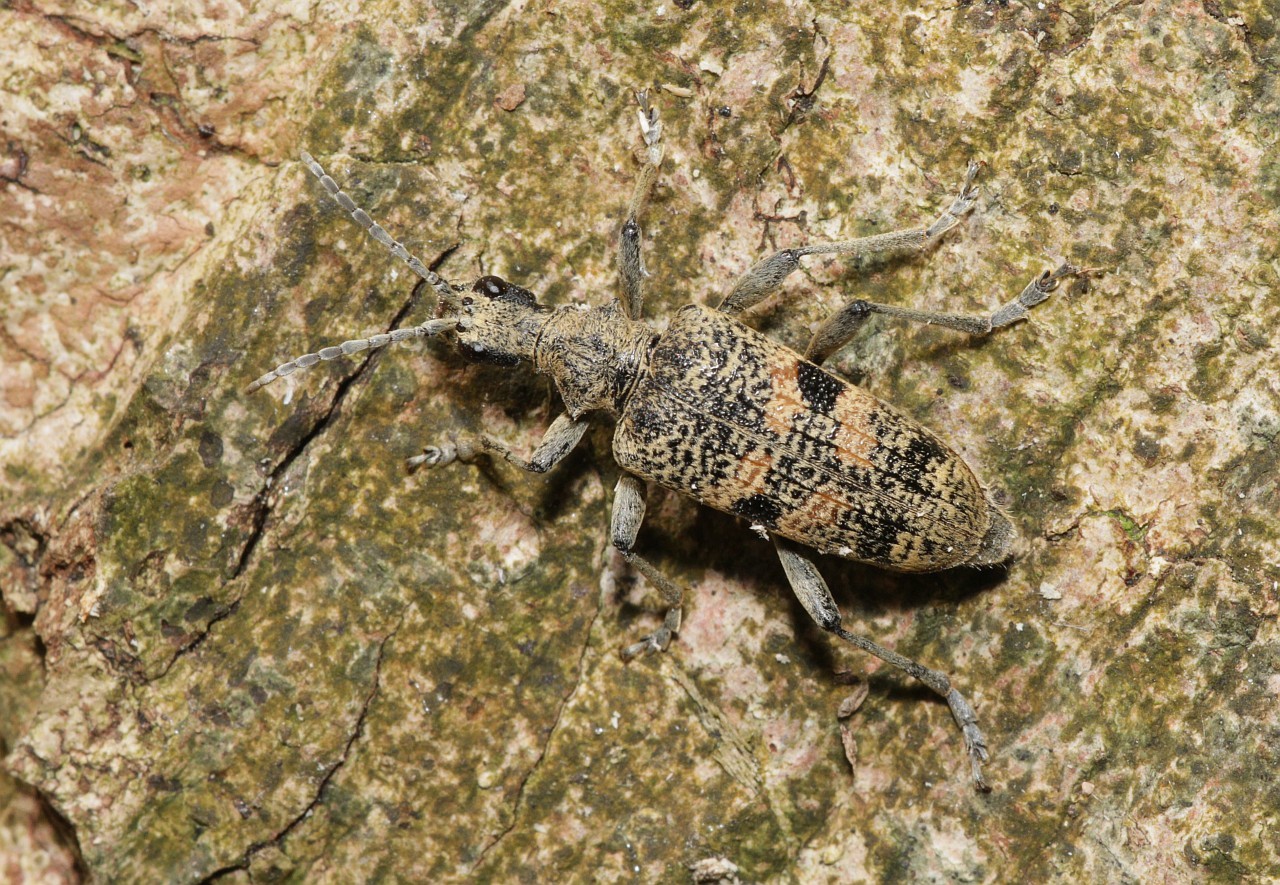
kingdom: Animalia
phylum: Arthropoda
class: Insecta
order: Coleoptera
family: Cerambycidae
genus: Rhagium
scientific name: Rhagium mordax
